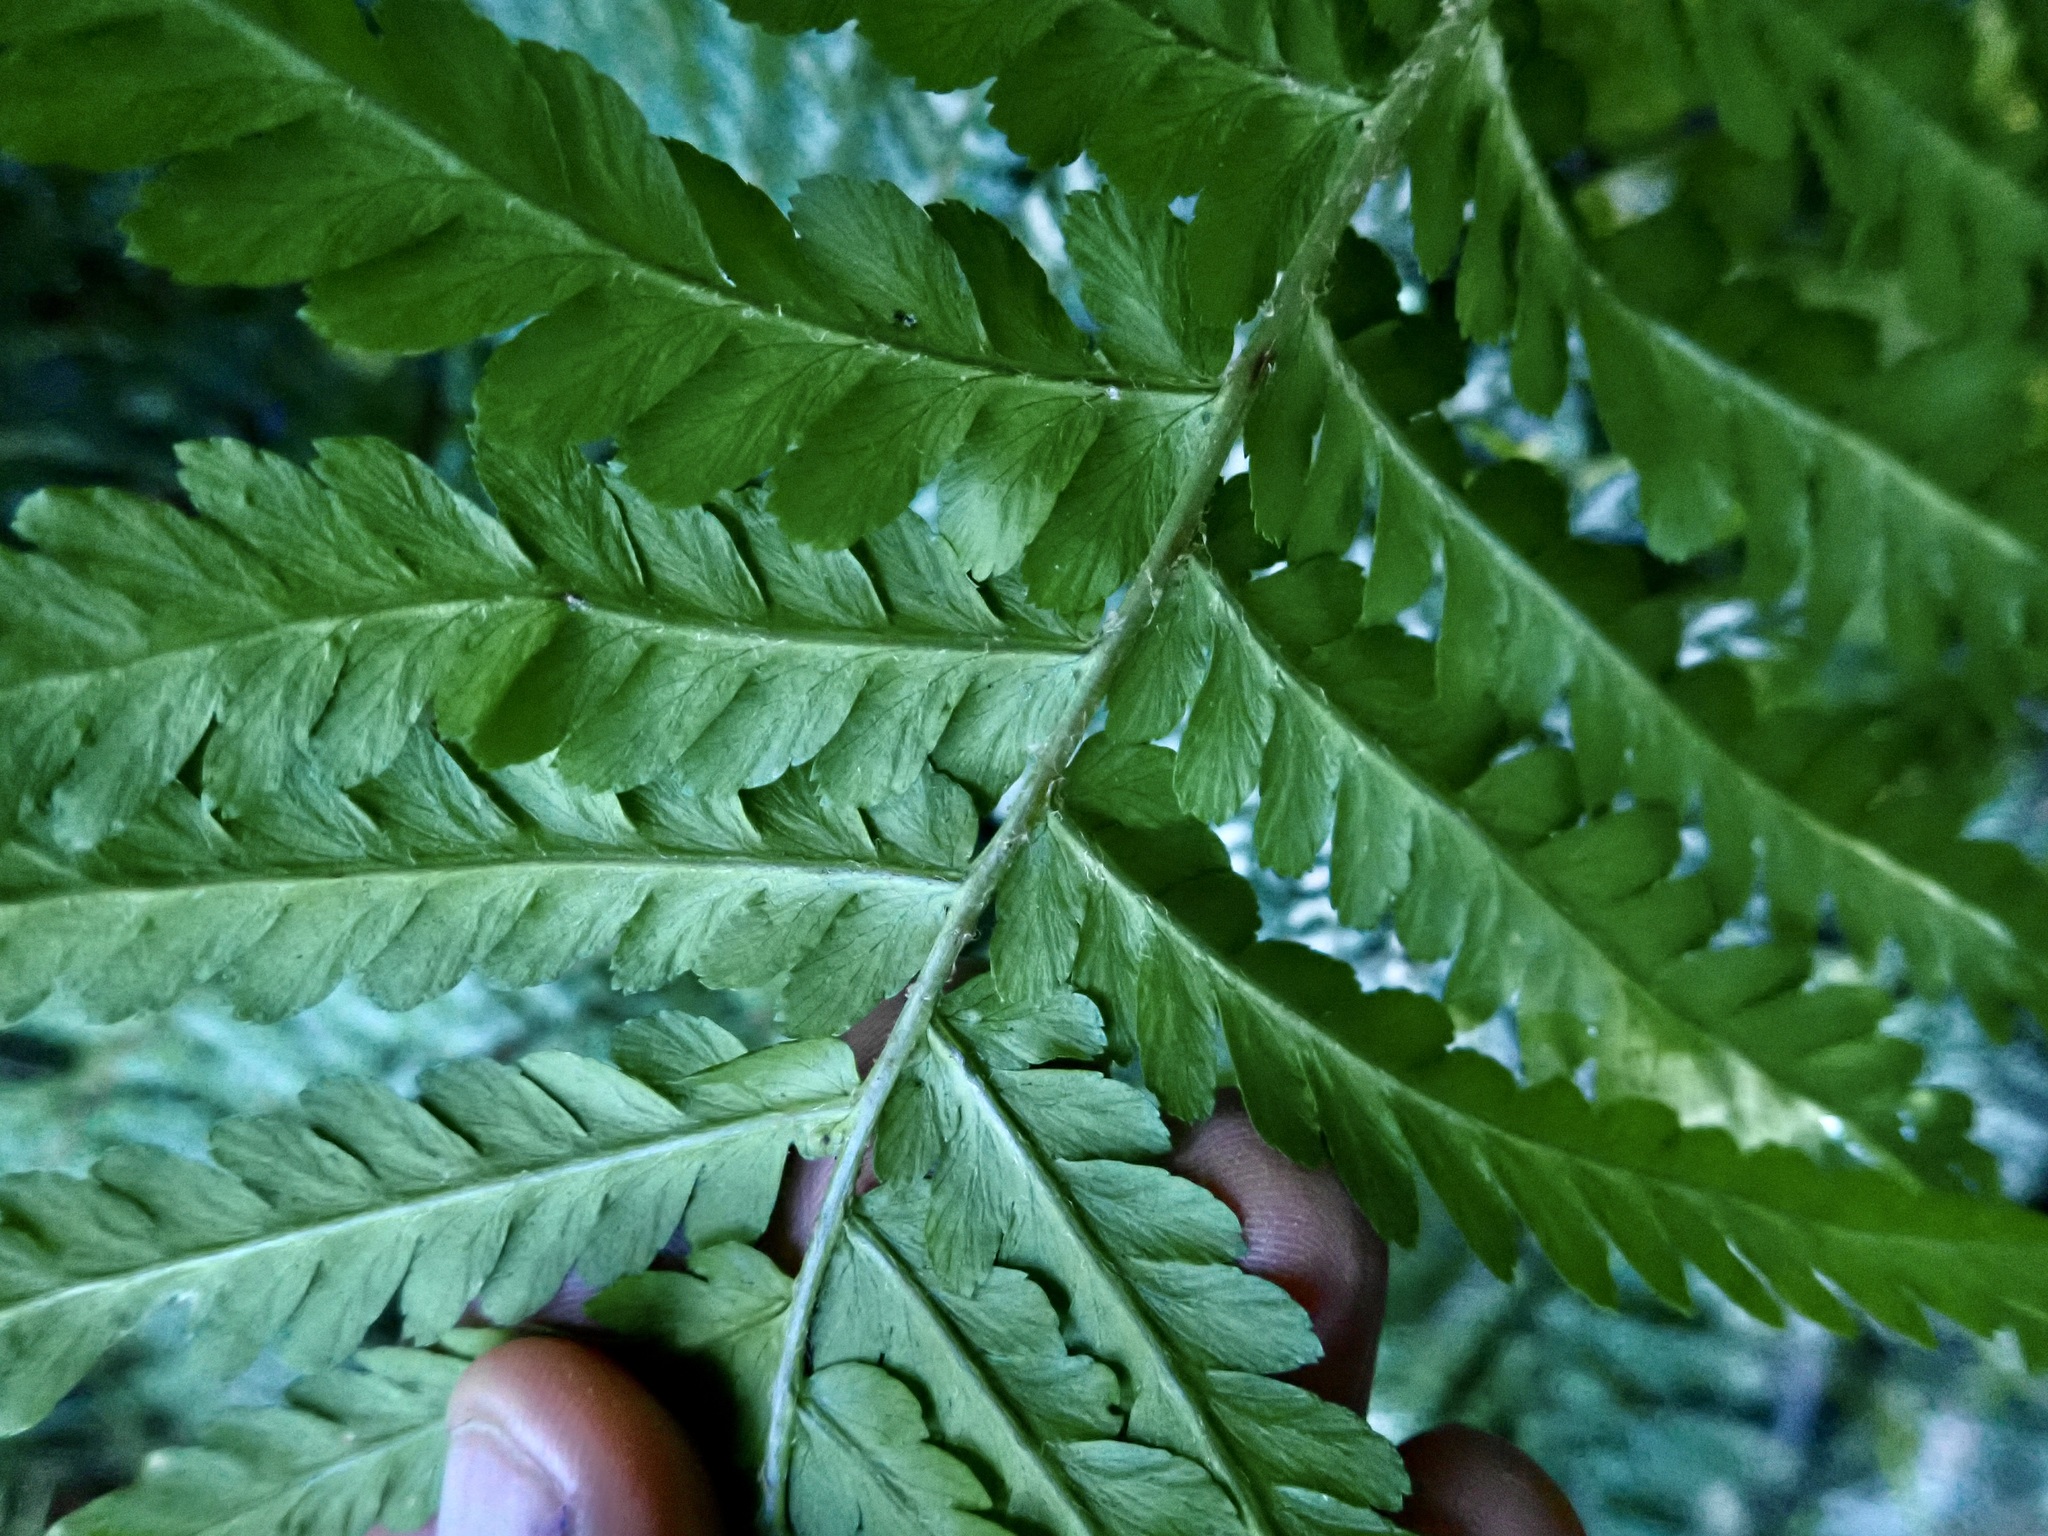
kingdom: Plantae
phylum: Tracheophyta
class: Polypodiopsida
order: Polypodiales
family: Dryopteridaceae
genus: Dryopteris
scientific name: Dryopteris filix-mas
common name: Male fern
